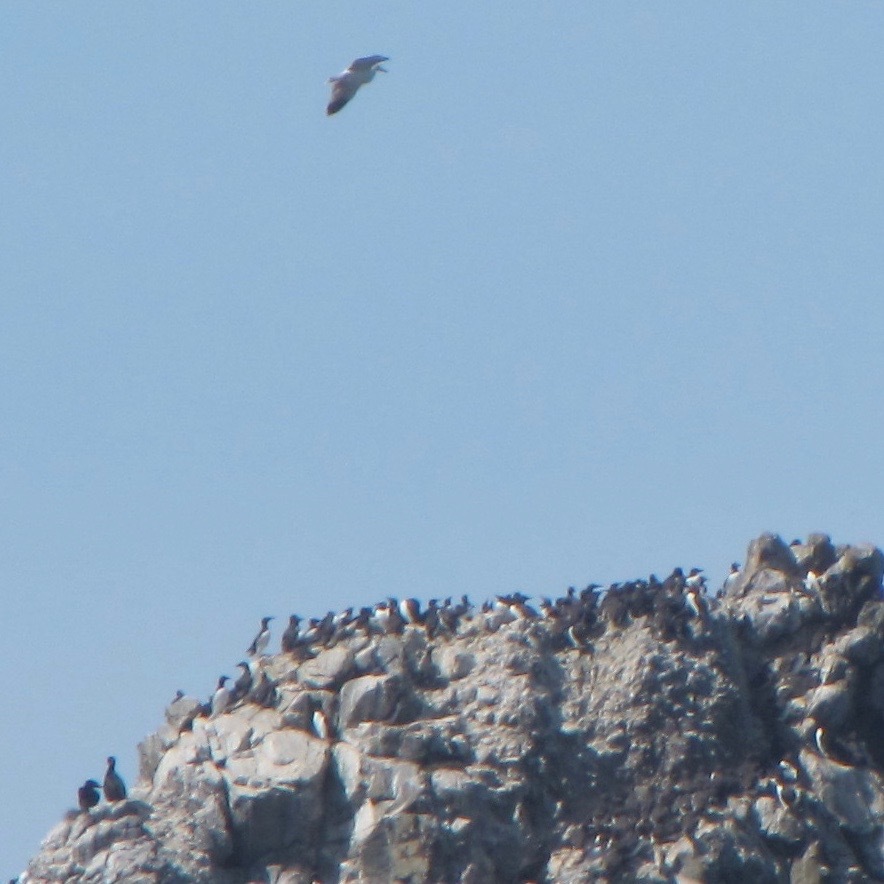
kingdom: Animalia
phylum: Chordata
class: Aves
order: Charadriiformes
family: Alcidae
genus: Uria
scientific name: Uria aalge
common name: Common murre
